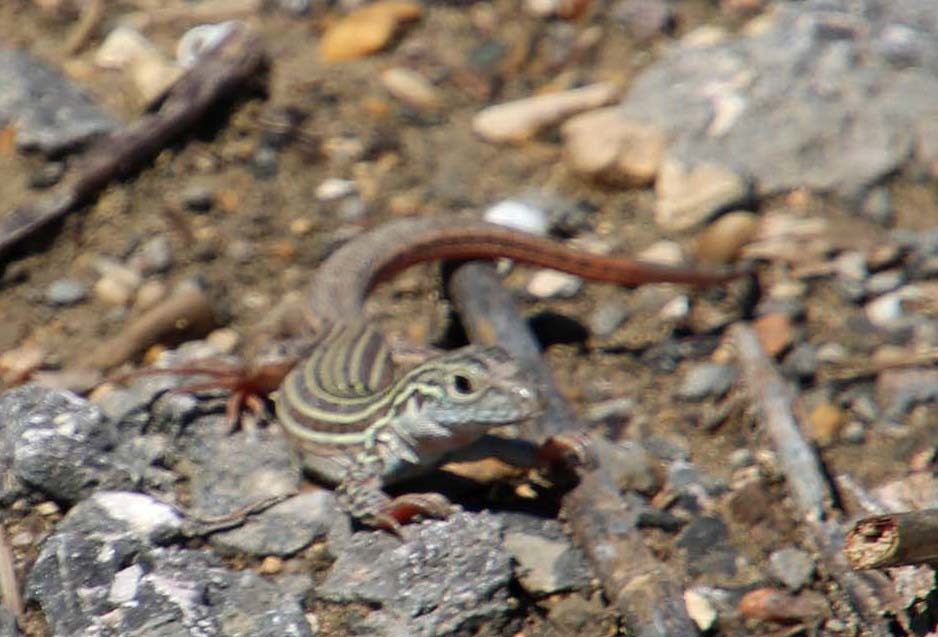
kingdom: Animalia
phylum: Chordata
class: Squamata
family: Teiidae
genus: Aspidoscelis
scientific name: Aspidoscelis gularis
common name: Eastern spotted whiptail
